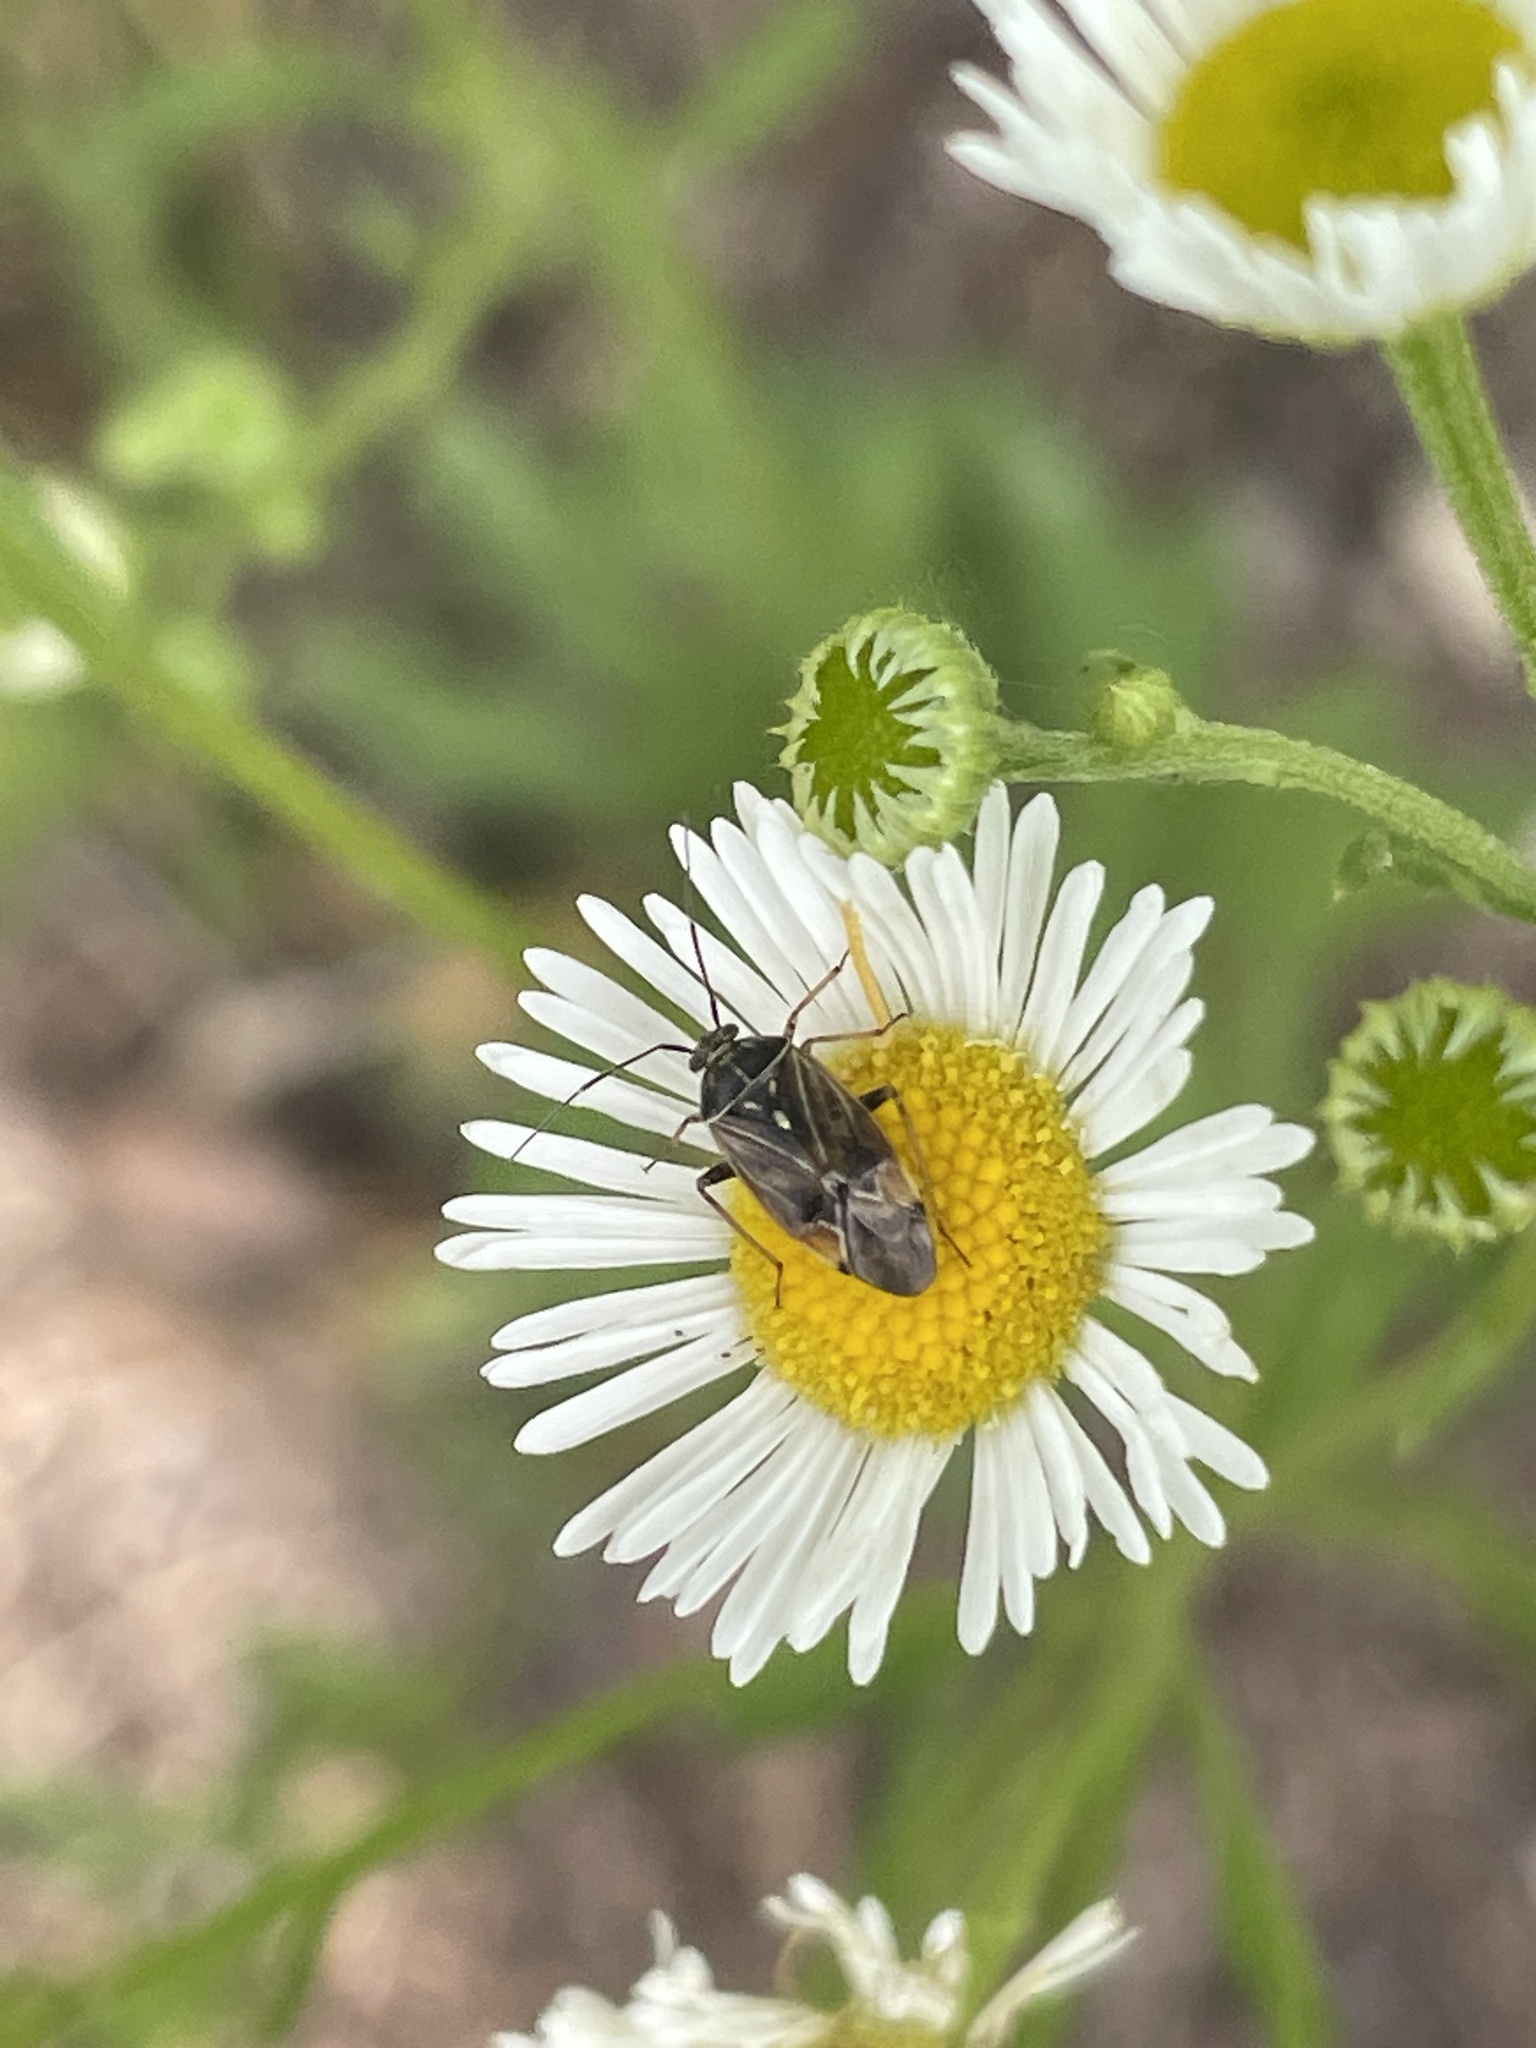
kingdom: Animalia
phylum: Arthropoda
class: Insecta
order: Hemiptera
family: Miridae
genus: Lygus
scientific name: Lygus lineolaris
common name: North american tarnished plant bug
